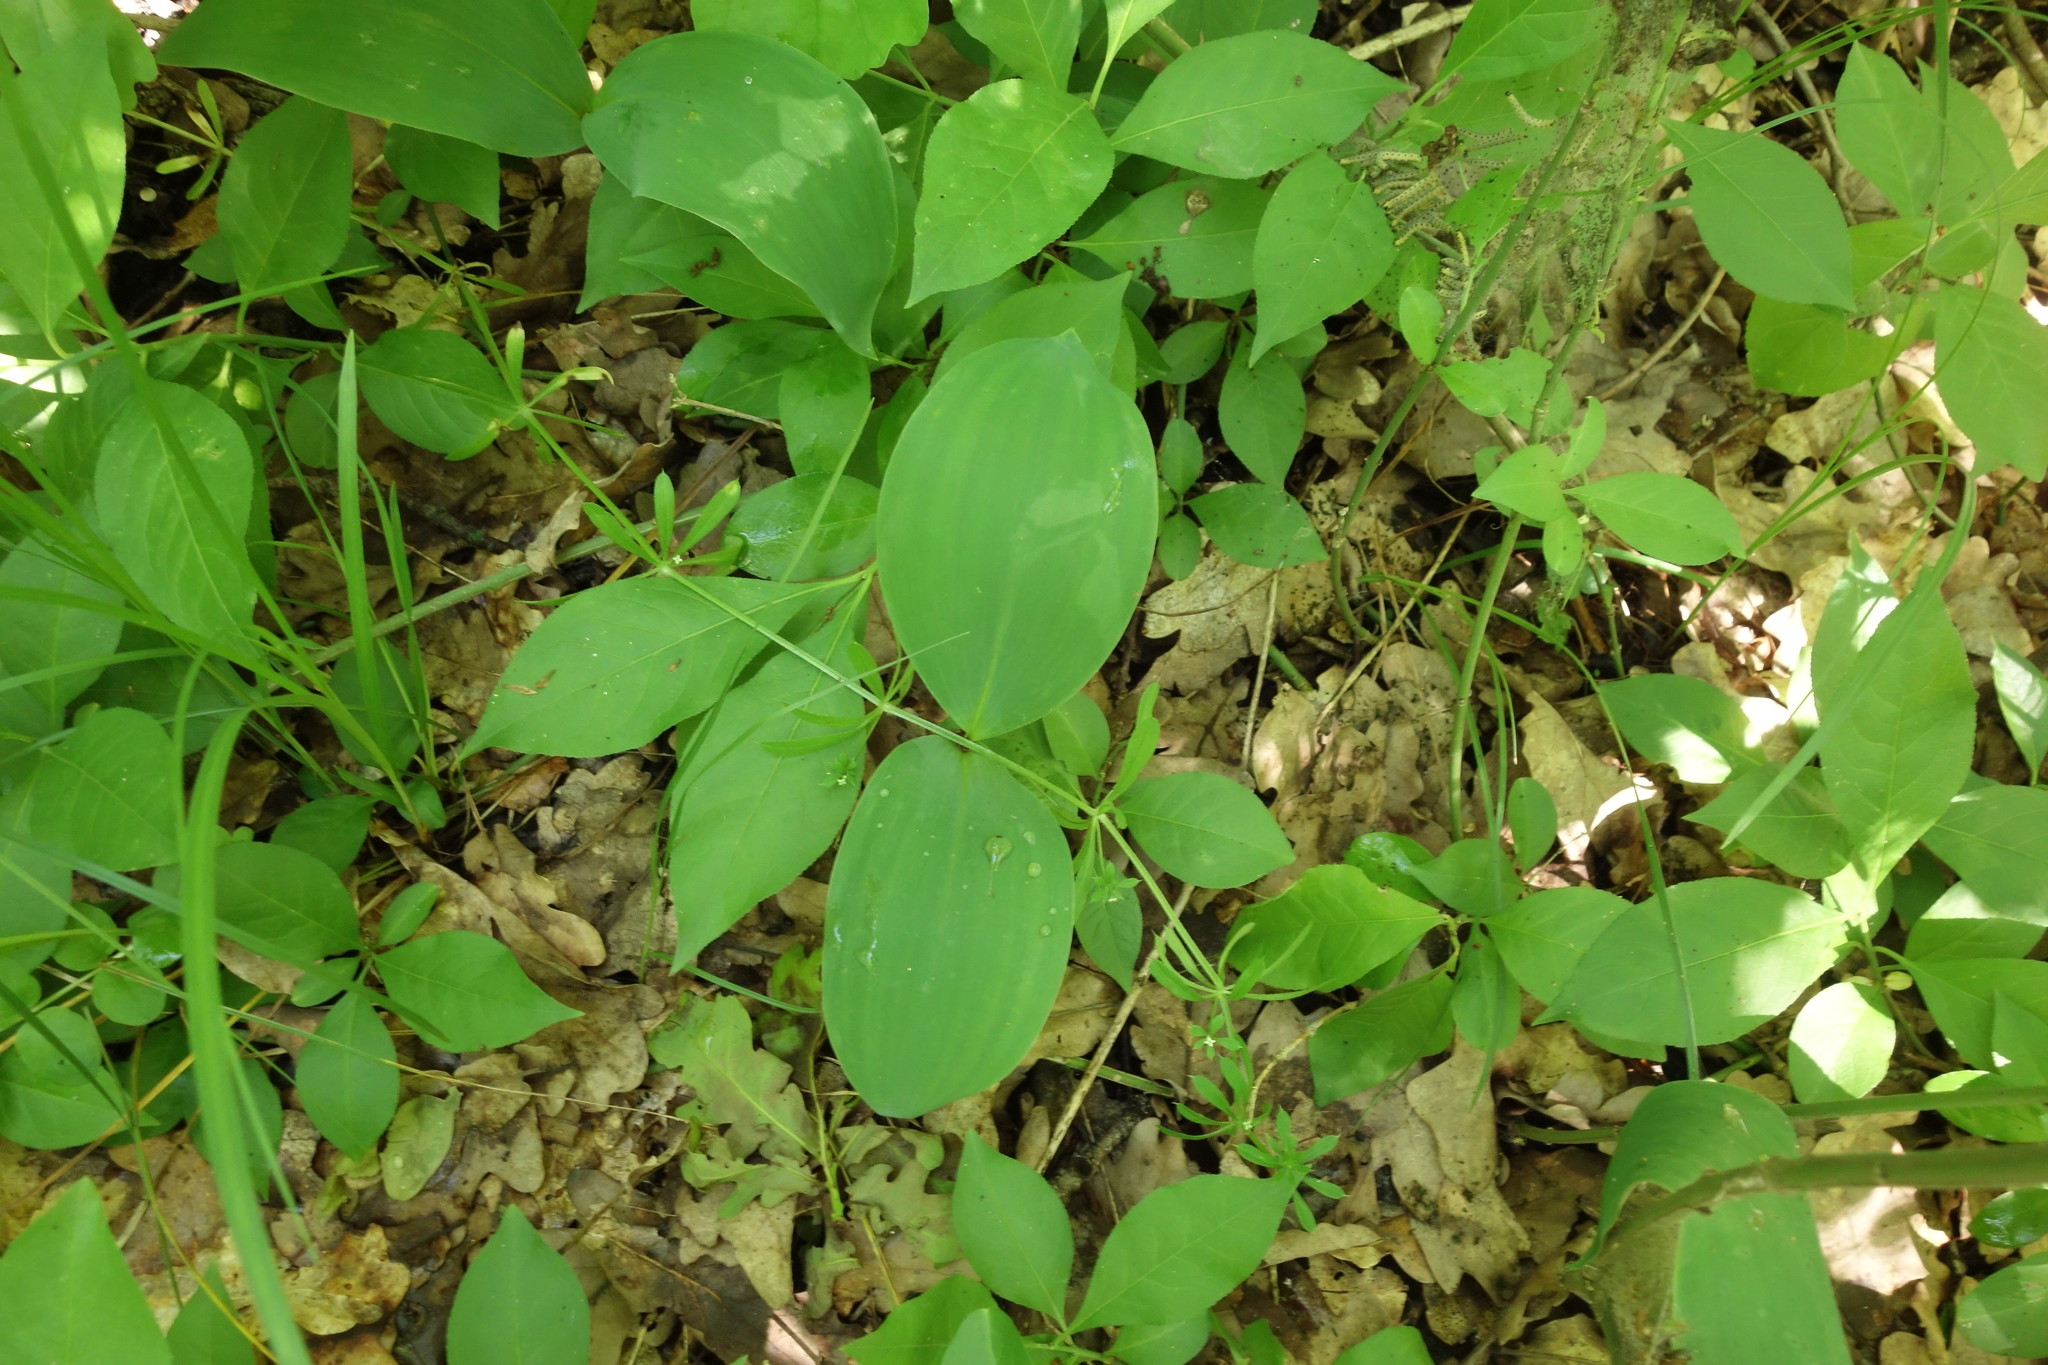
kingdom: Plantae
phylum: Tracheophyta
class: Liliopsida
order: Asparagales
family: Asparagaceae
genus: Convallaria
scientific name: Convallaria majalis
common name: Lily-of-the-valley
